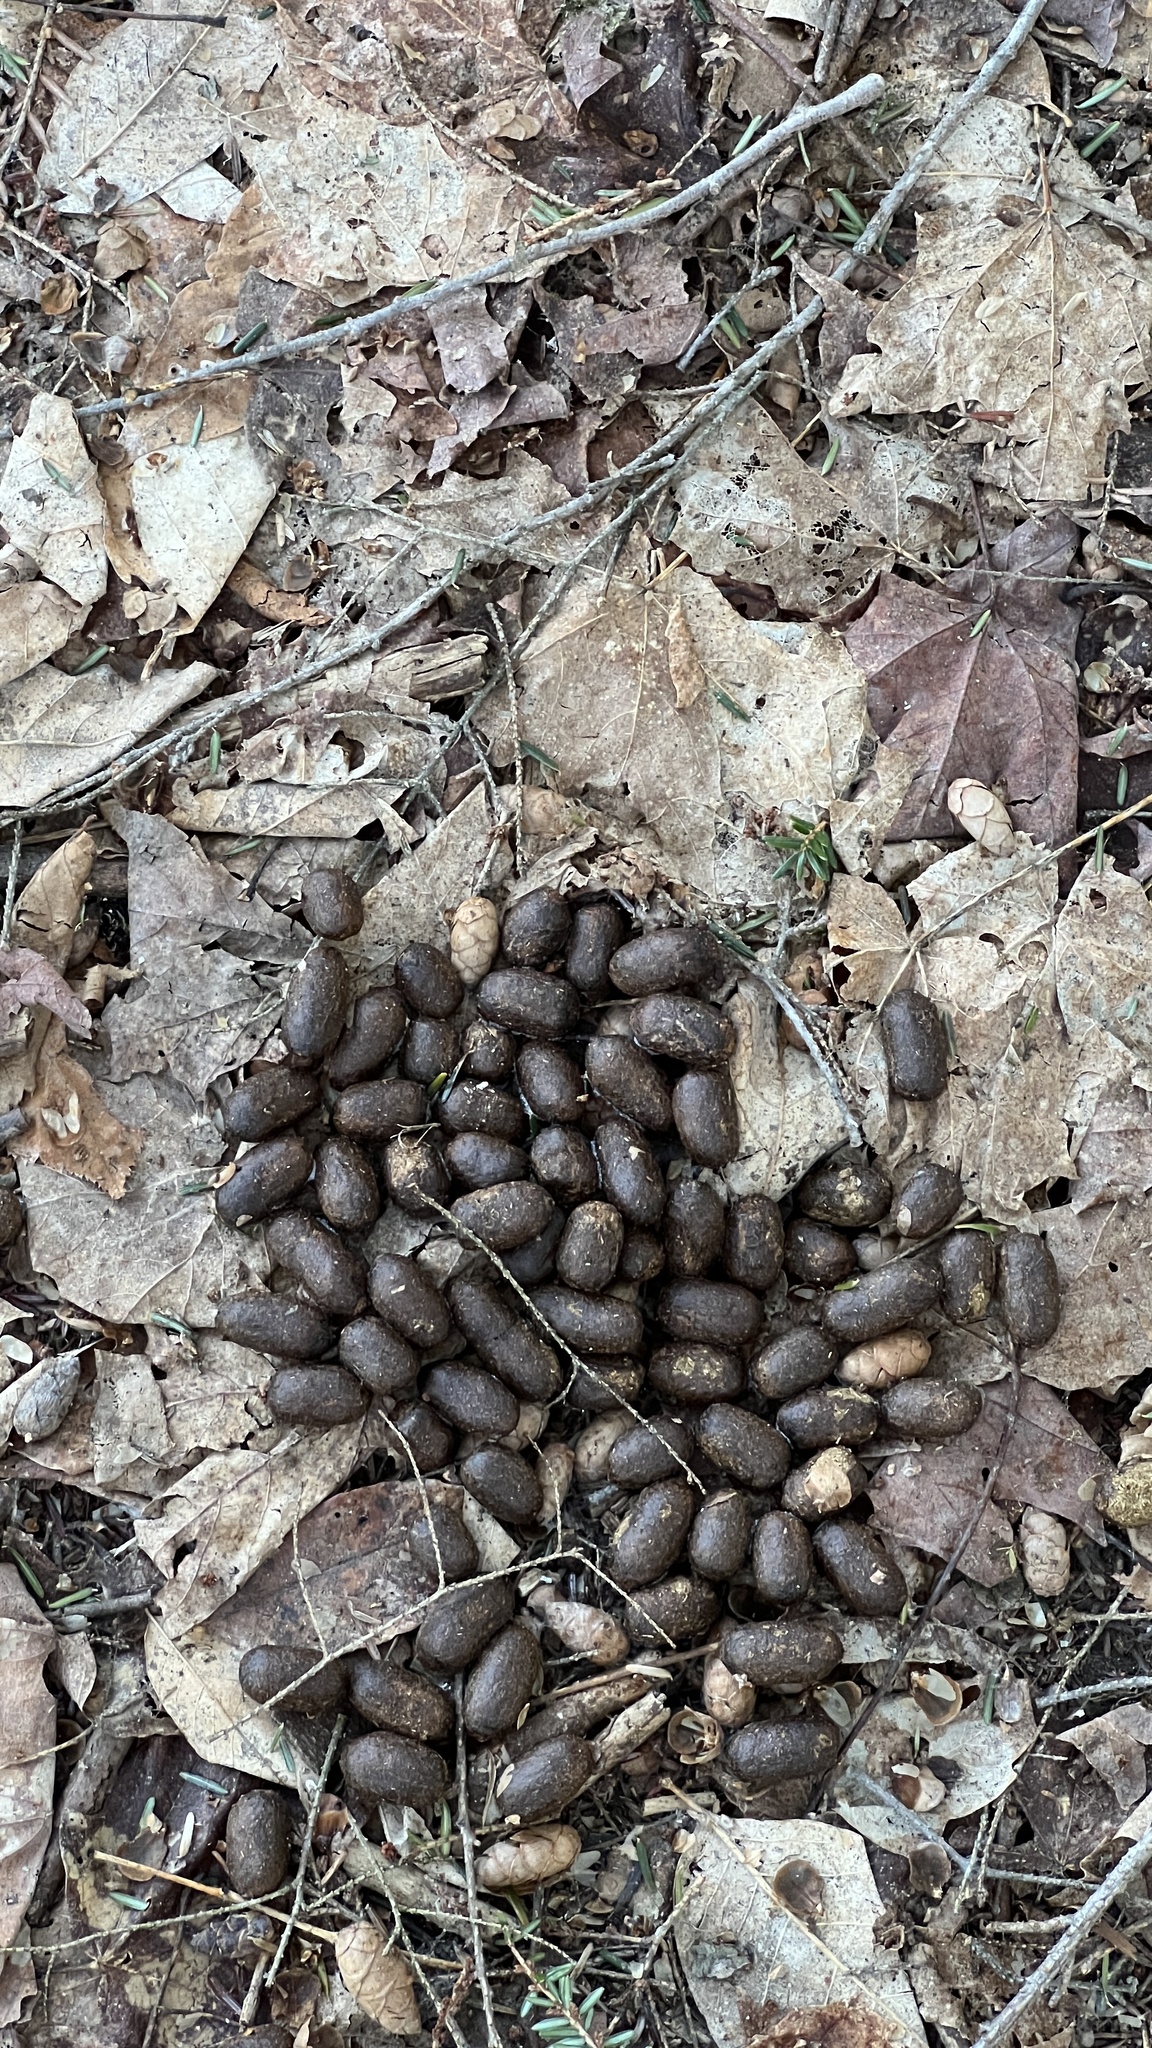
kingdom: Animalia
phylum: Chordata
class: Mammalia
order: Artiodactyla
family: Cervidae
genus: Odocoileus
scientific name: Odocoileus virginianus
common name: White-tailed deer
